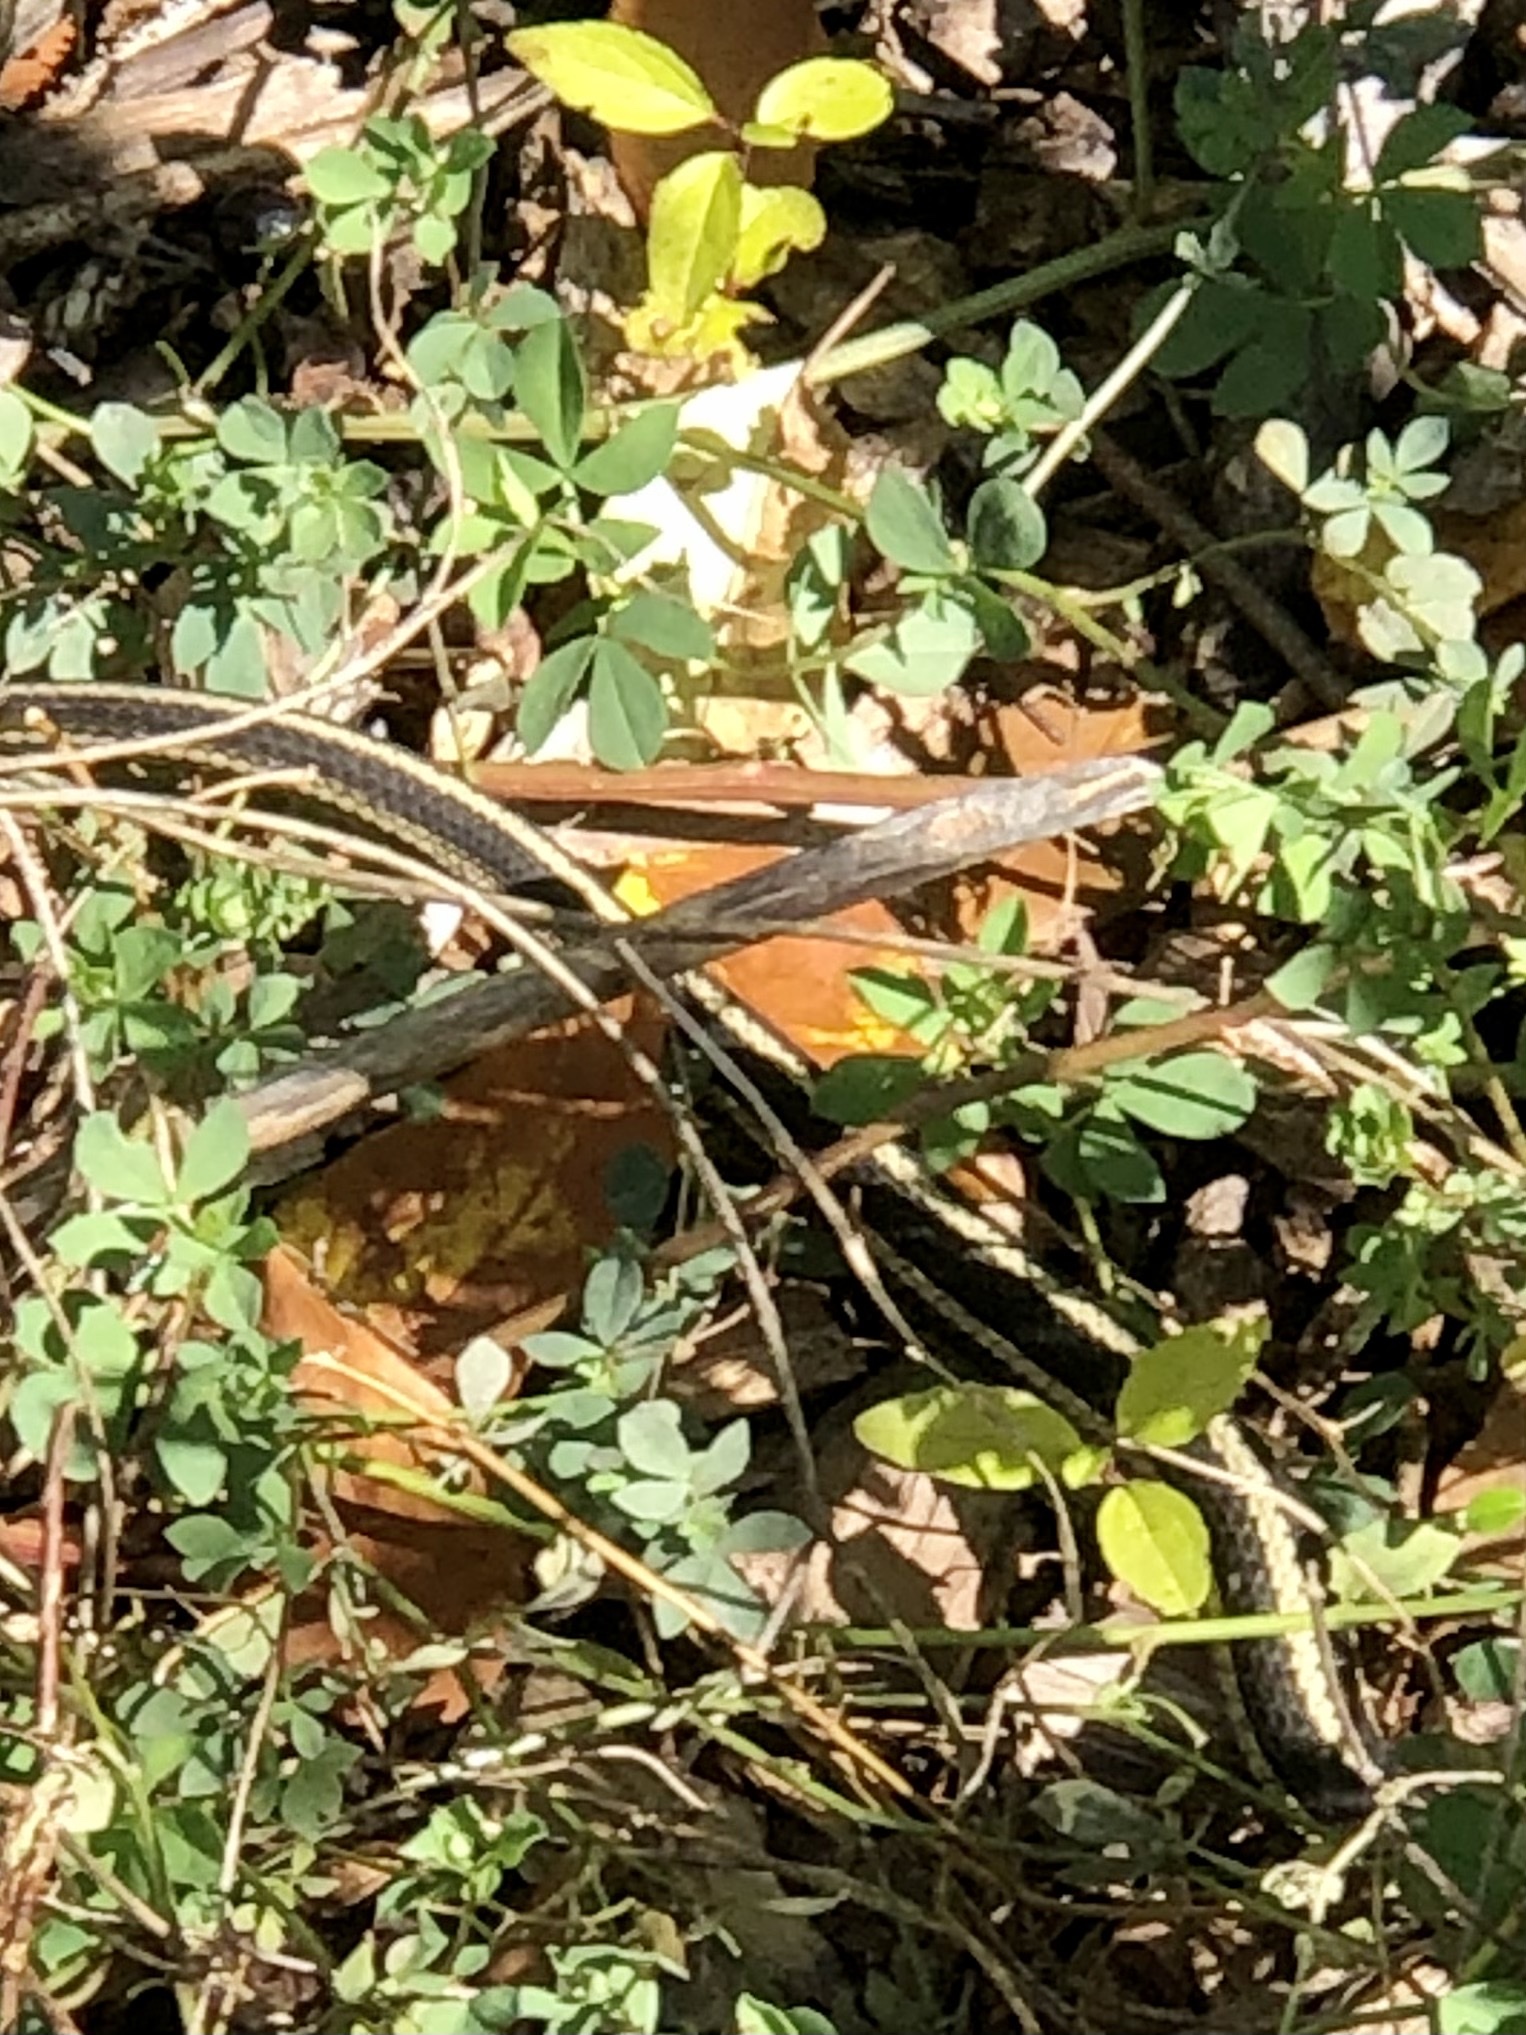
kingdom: Animalia
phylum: Chordata
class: Squamata
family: Colubridae
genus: Thamnophis
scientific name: Thamnophis sirtalis
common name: Common garter snake
